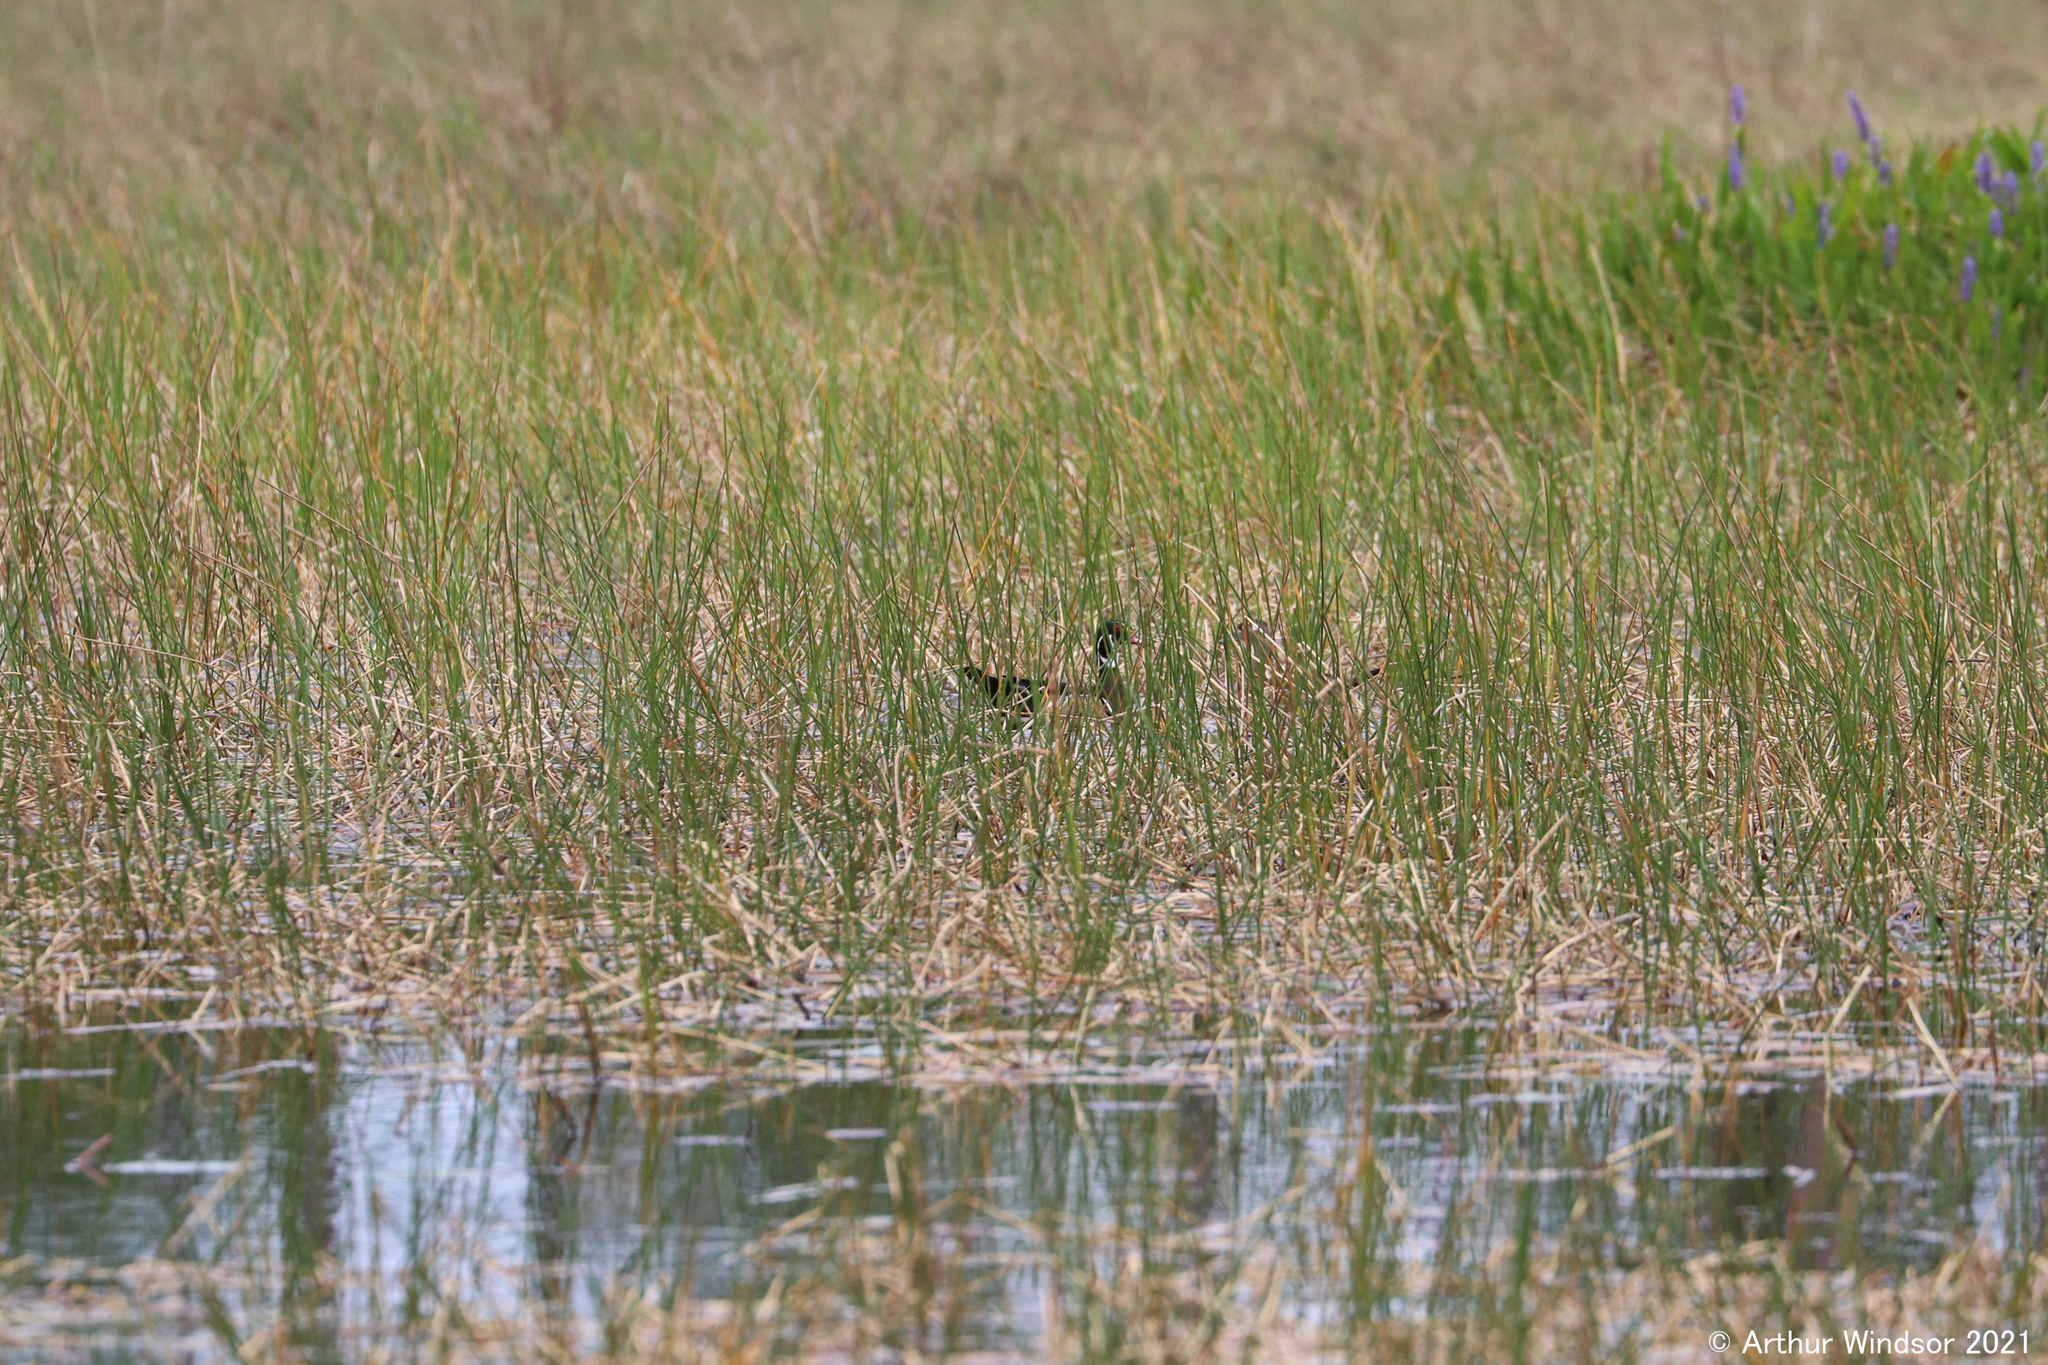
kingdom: Animalia
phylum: Chordata
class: Aves
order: Anseriformes
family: Anatidae
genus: Aix
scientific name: Aix sponsa
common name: Wood duck
